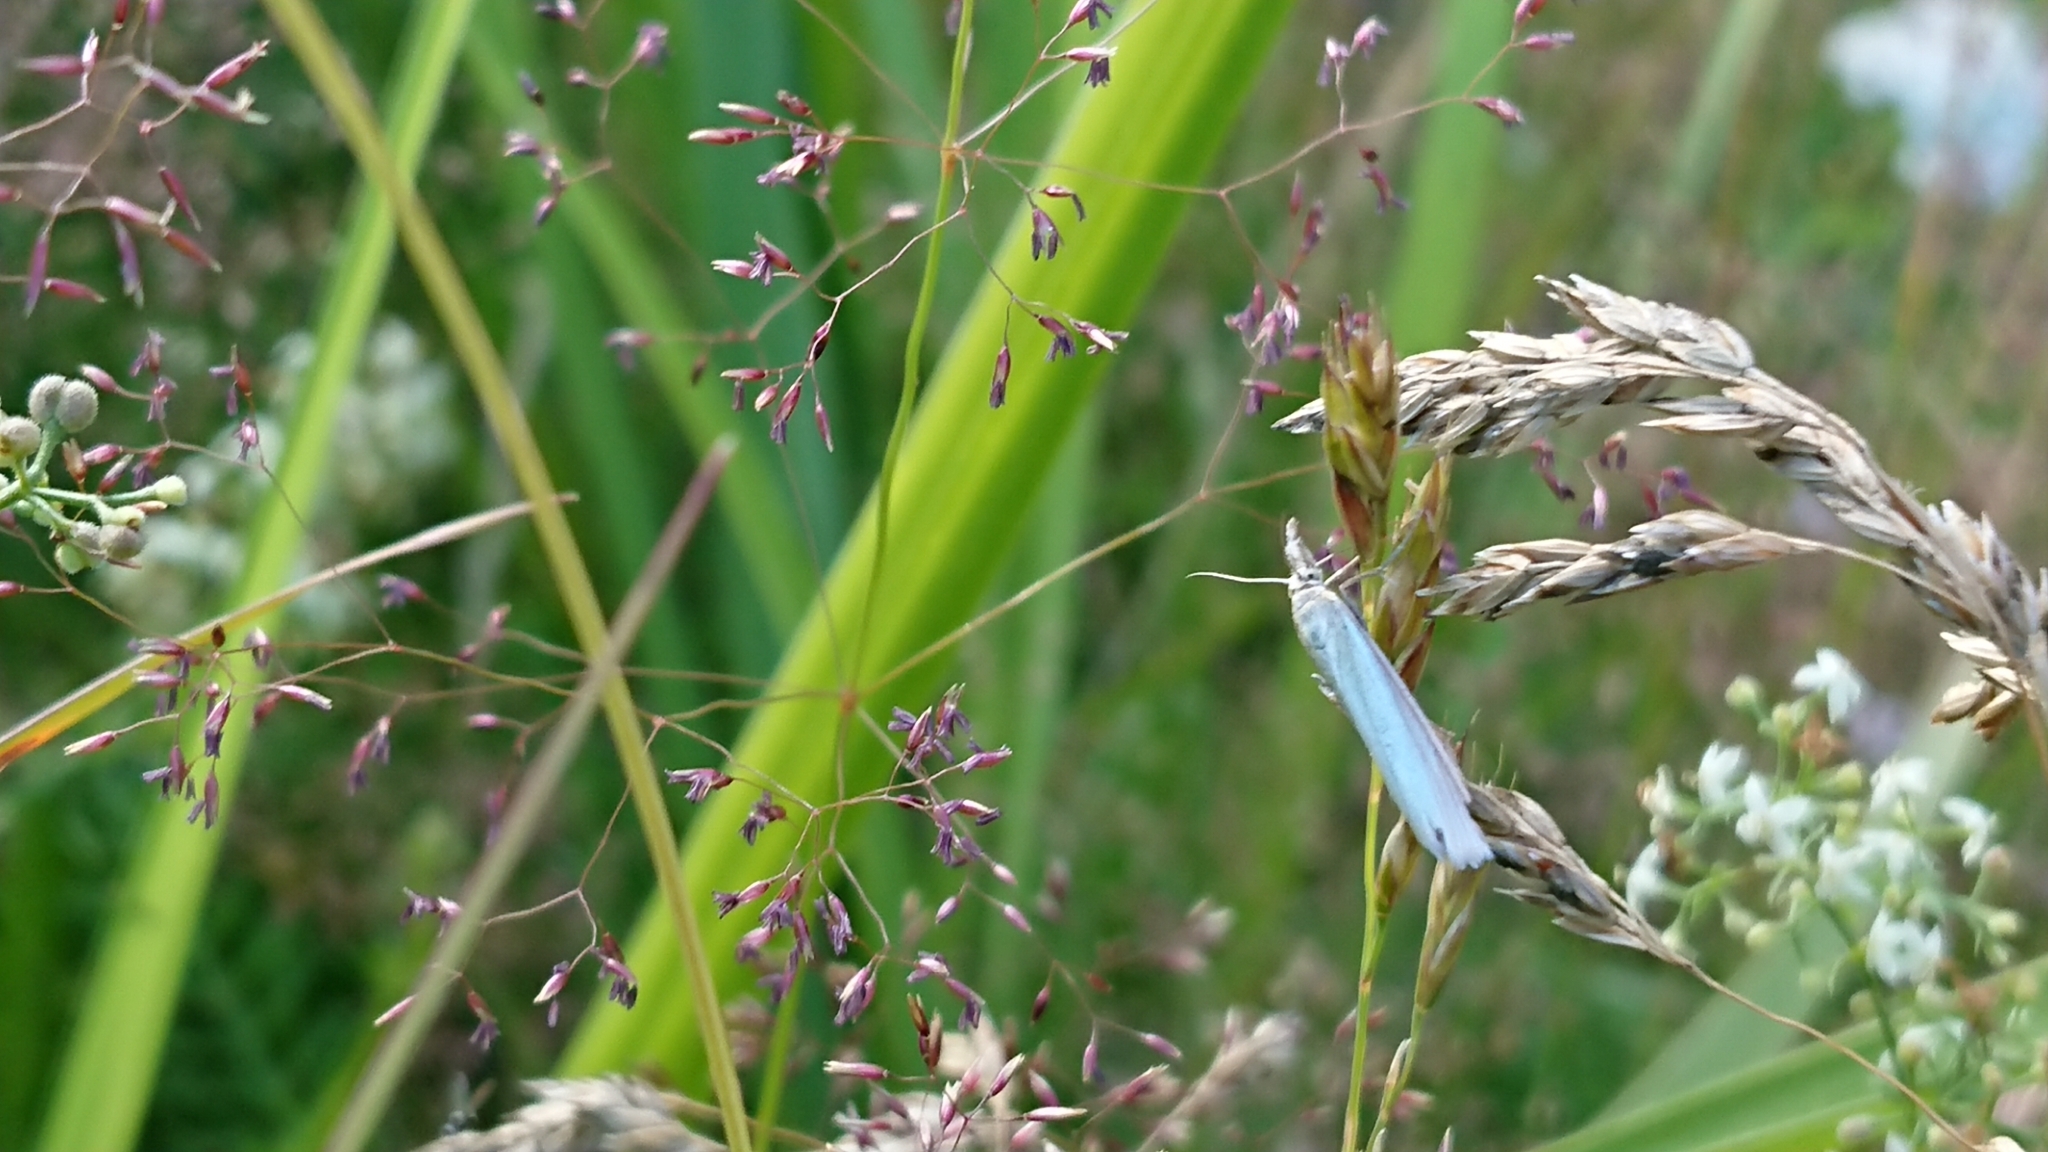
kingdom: Animalia
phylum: Arthropoda
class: Insecta
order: Lepidoptera
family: Crambidae
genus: Crambus
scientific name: Crambus perlellus
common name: Yellow satin veneer
